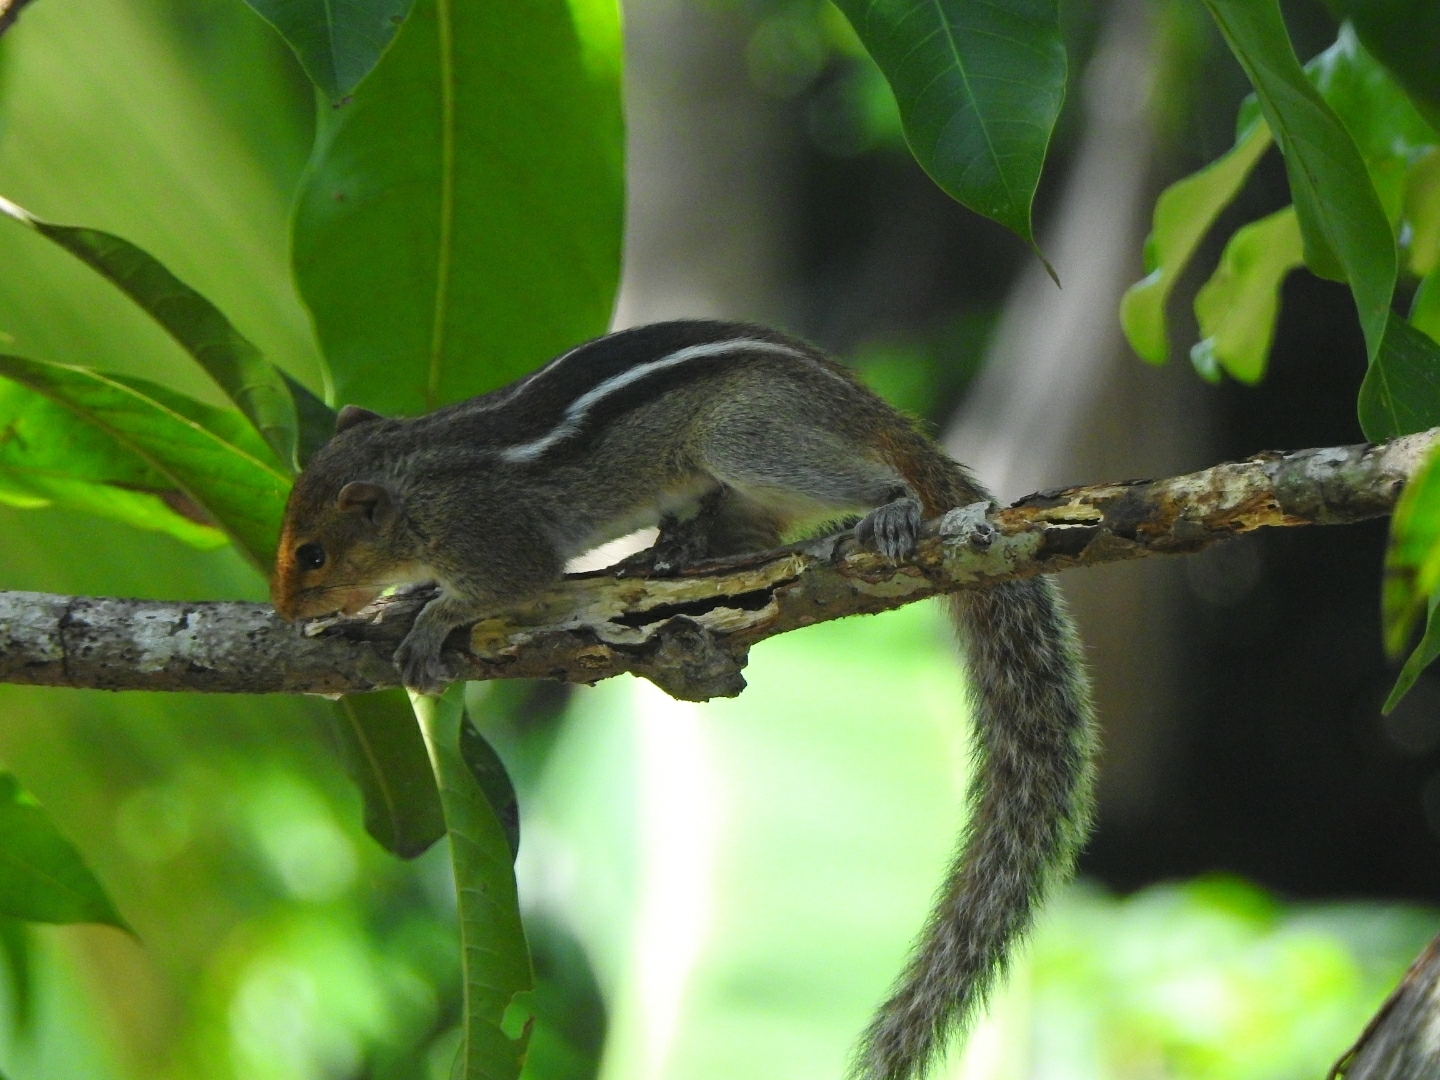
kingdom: Animalia
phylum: Chordata
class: Mammalia
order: Rodentia
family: Sciuridae
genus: Funambulus
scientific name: Funambulus tristriatus
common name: Jungle palm squirrel
